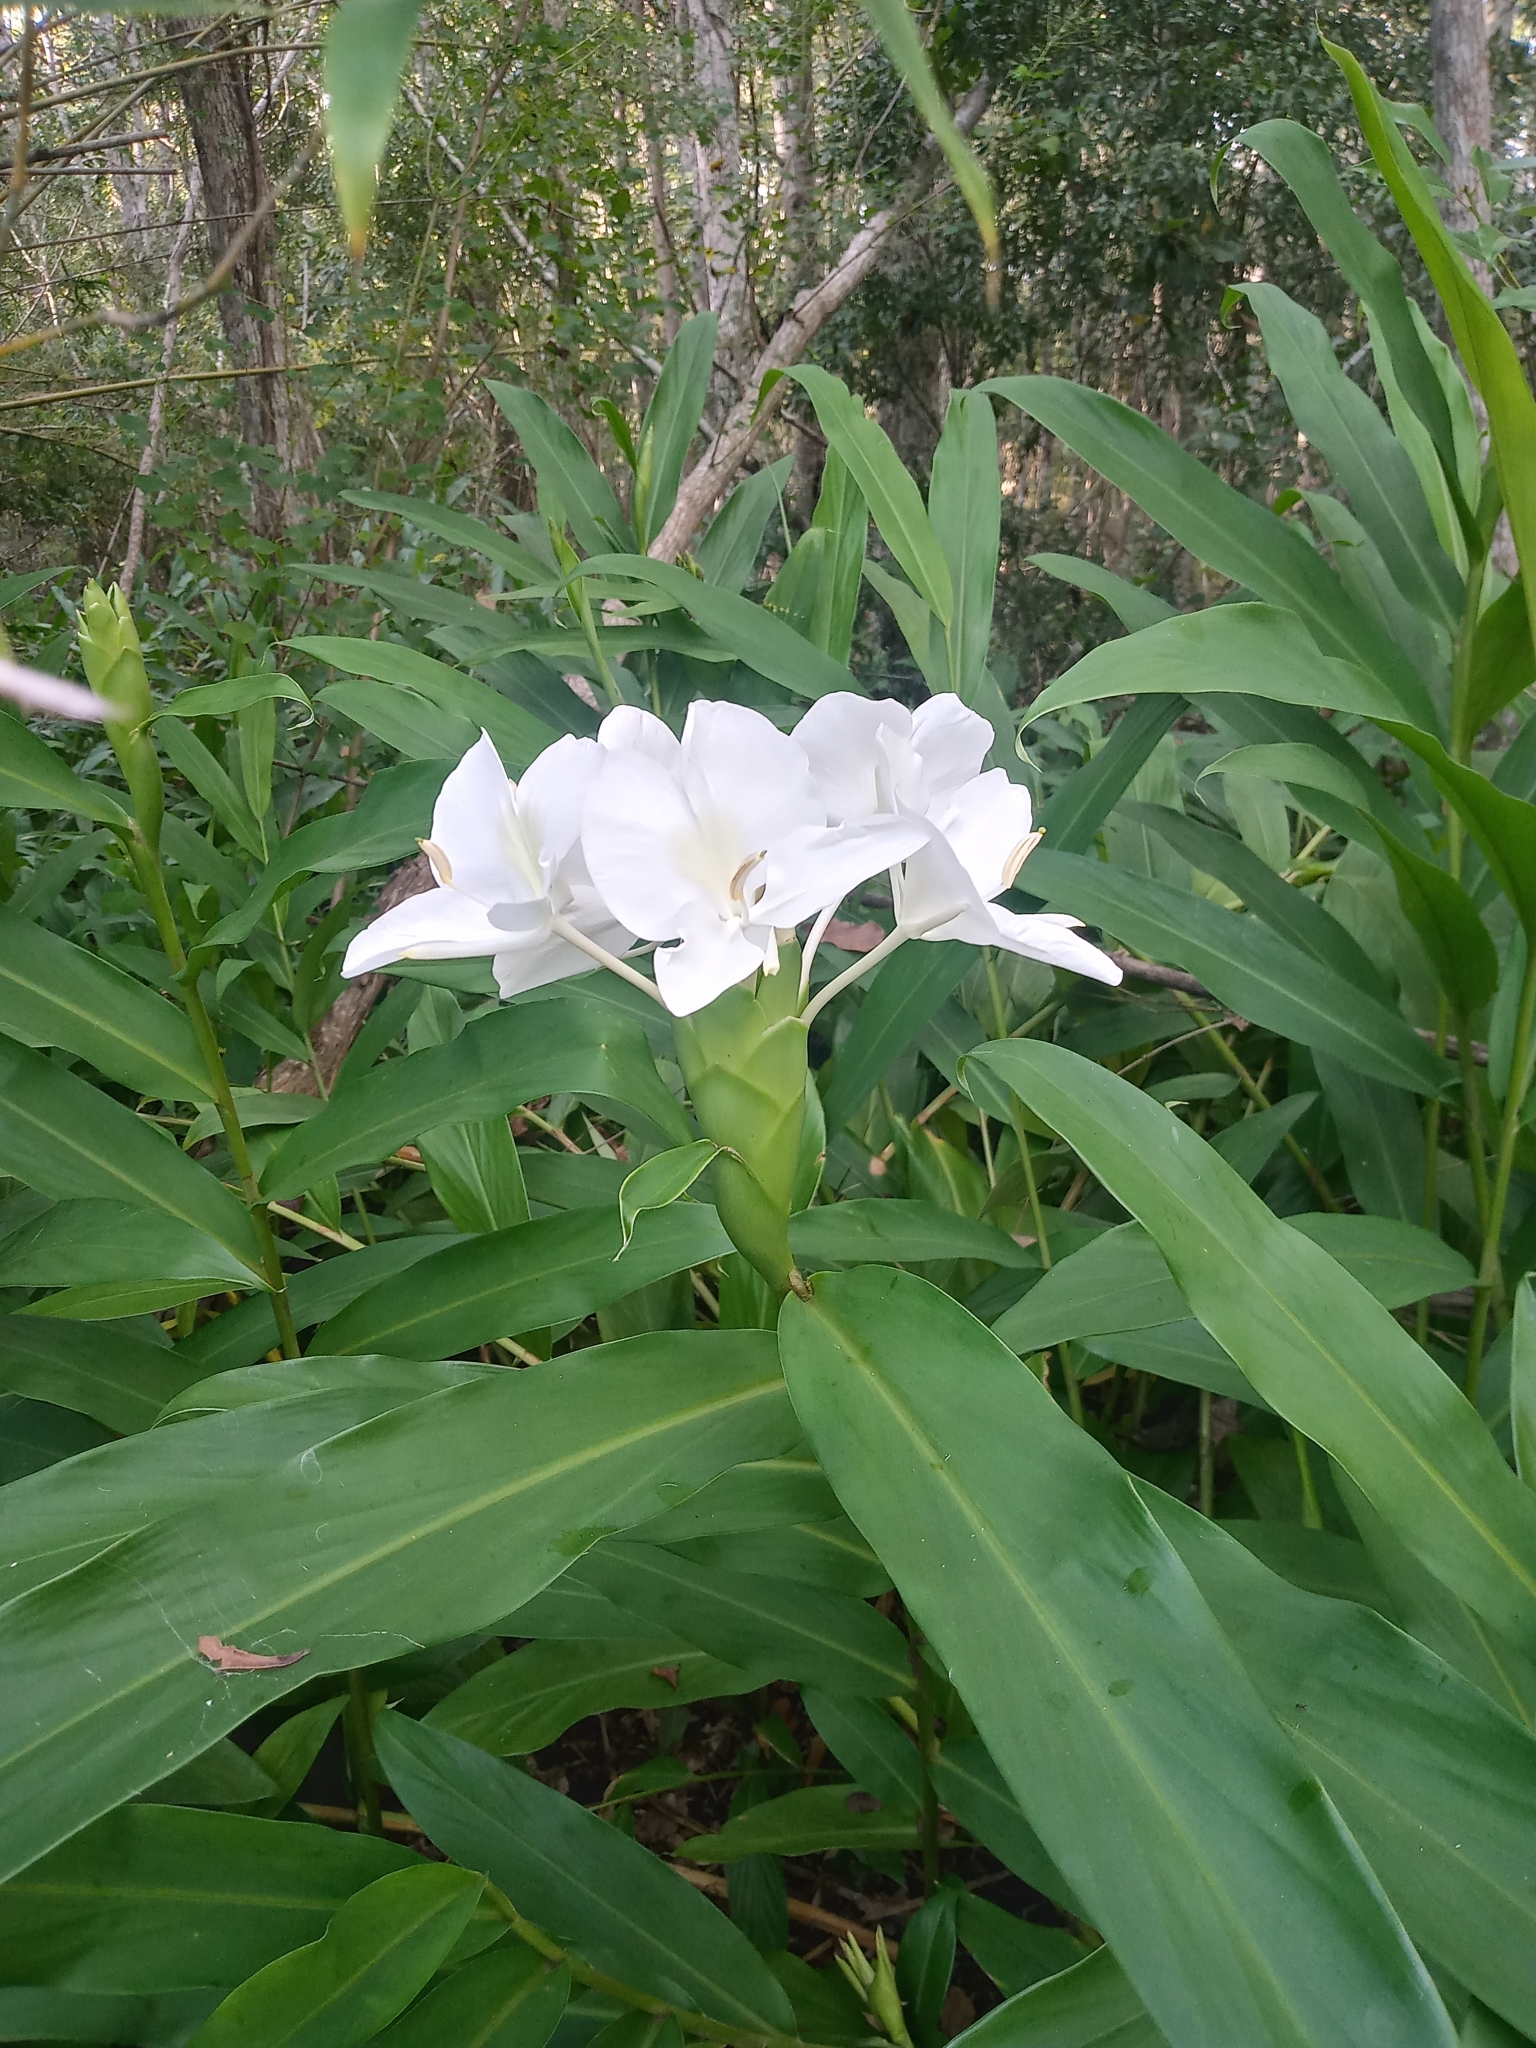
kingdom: Plantae
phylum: Tracheophyta
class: Liliopsida
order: Zingiberales
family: Zingiberaceae
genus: Hedychium
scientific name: Hedychium coronarium
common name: White garland-lily
